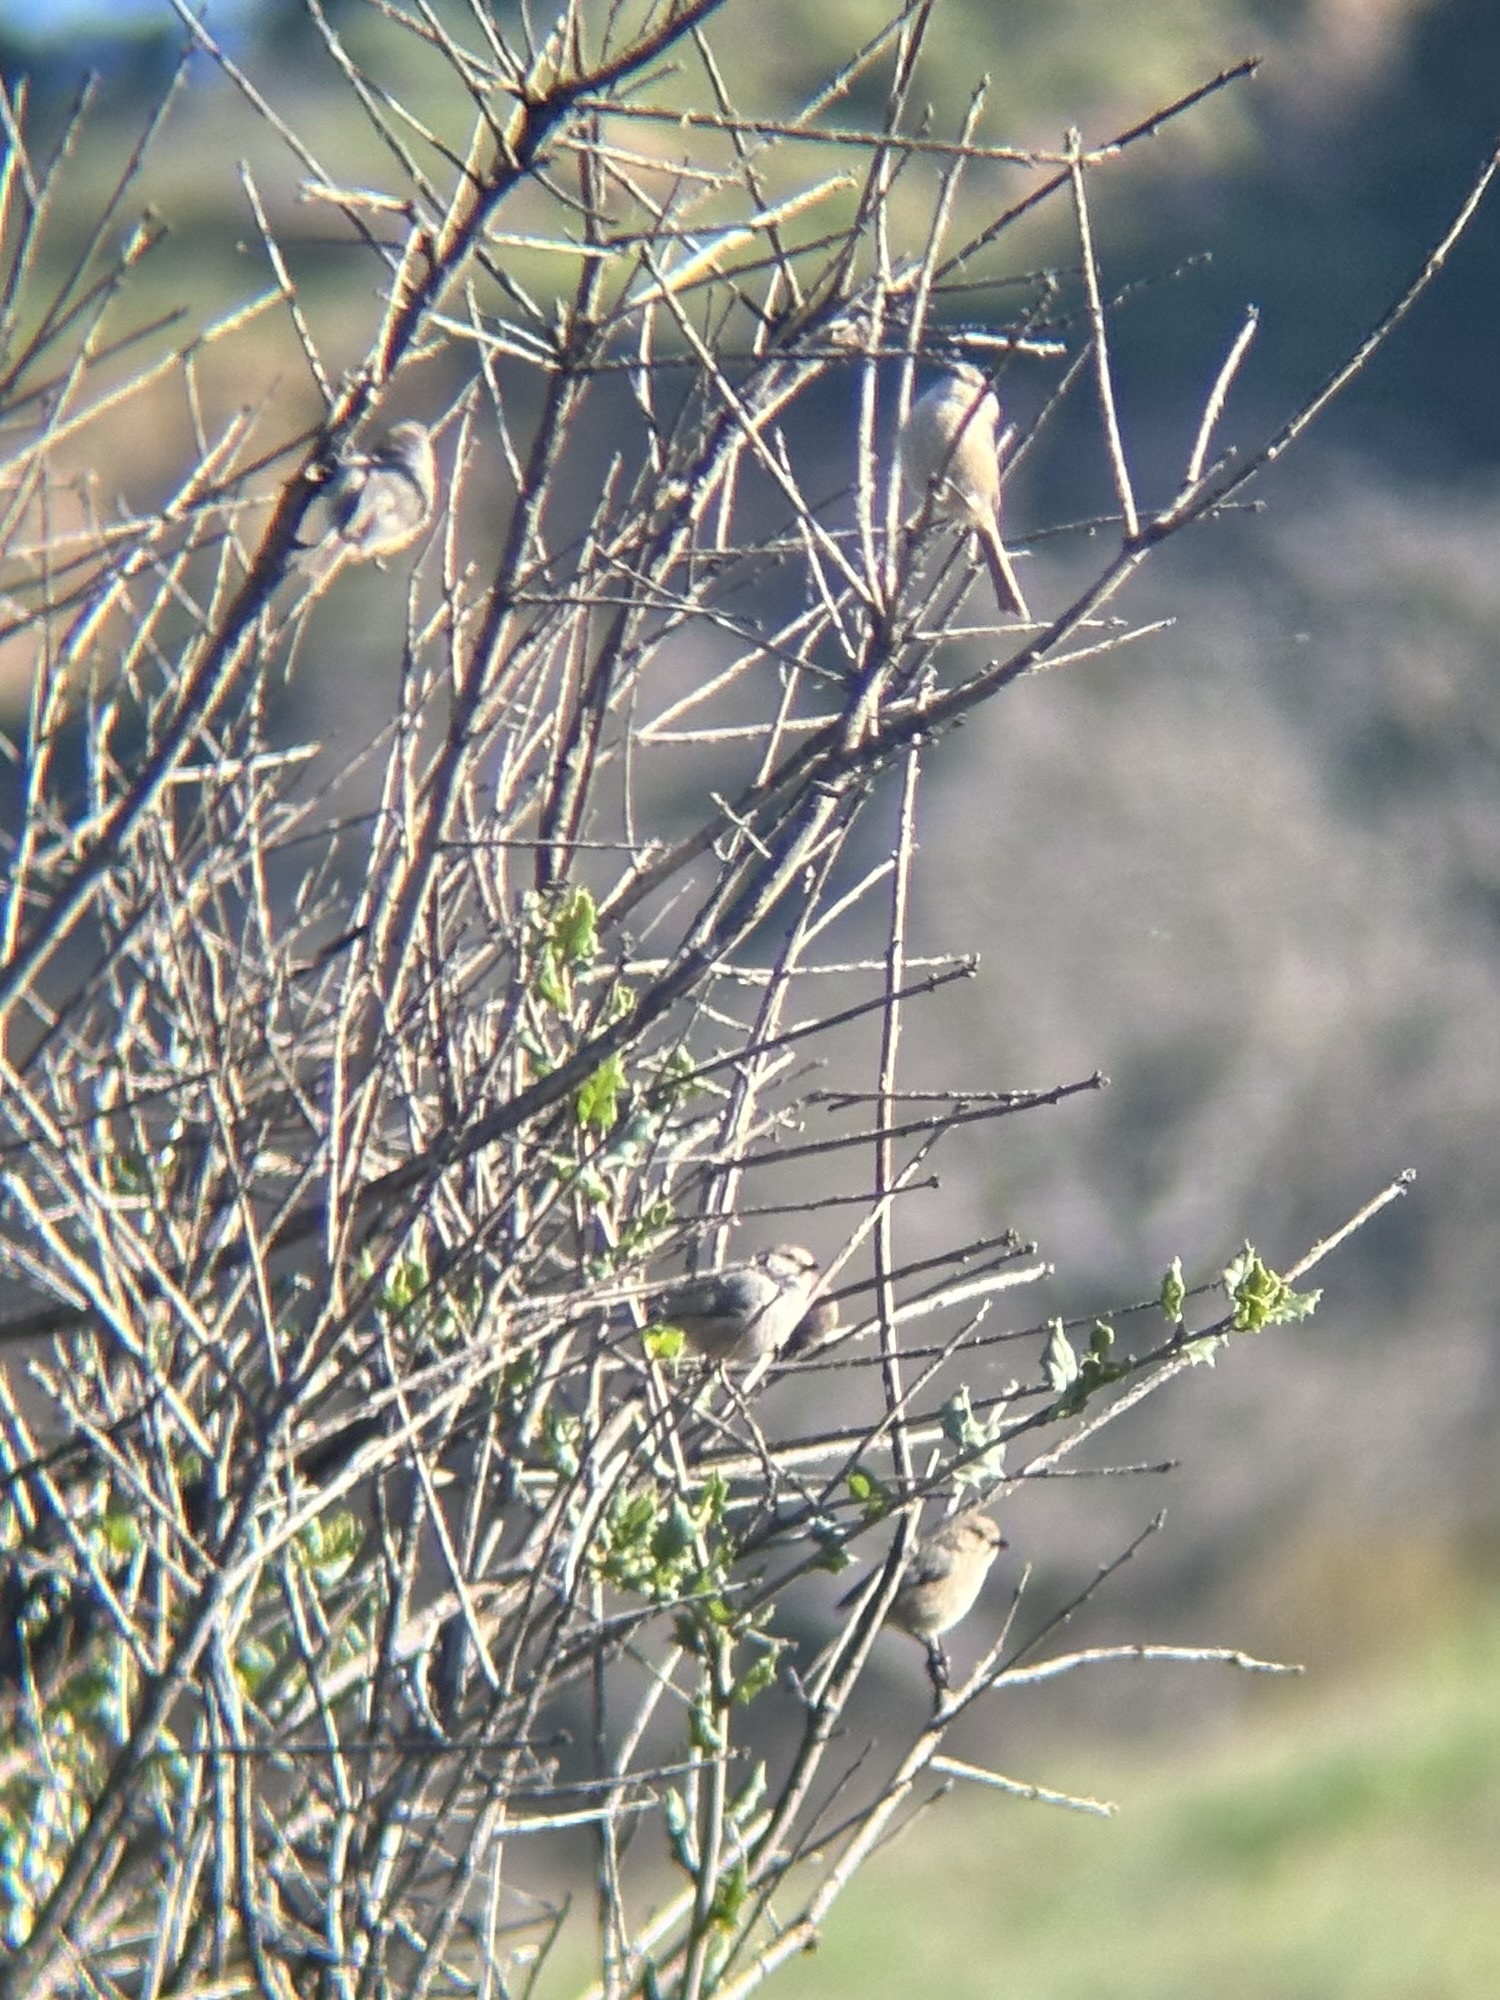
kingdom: Animalia
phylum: Chordata
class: Aves
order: Passeriformes
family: Aegithalidae
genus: Psaltriparus
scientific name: Psaltriparus minimus
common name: American bushtit
